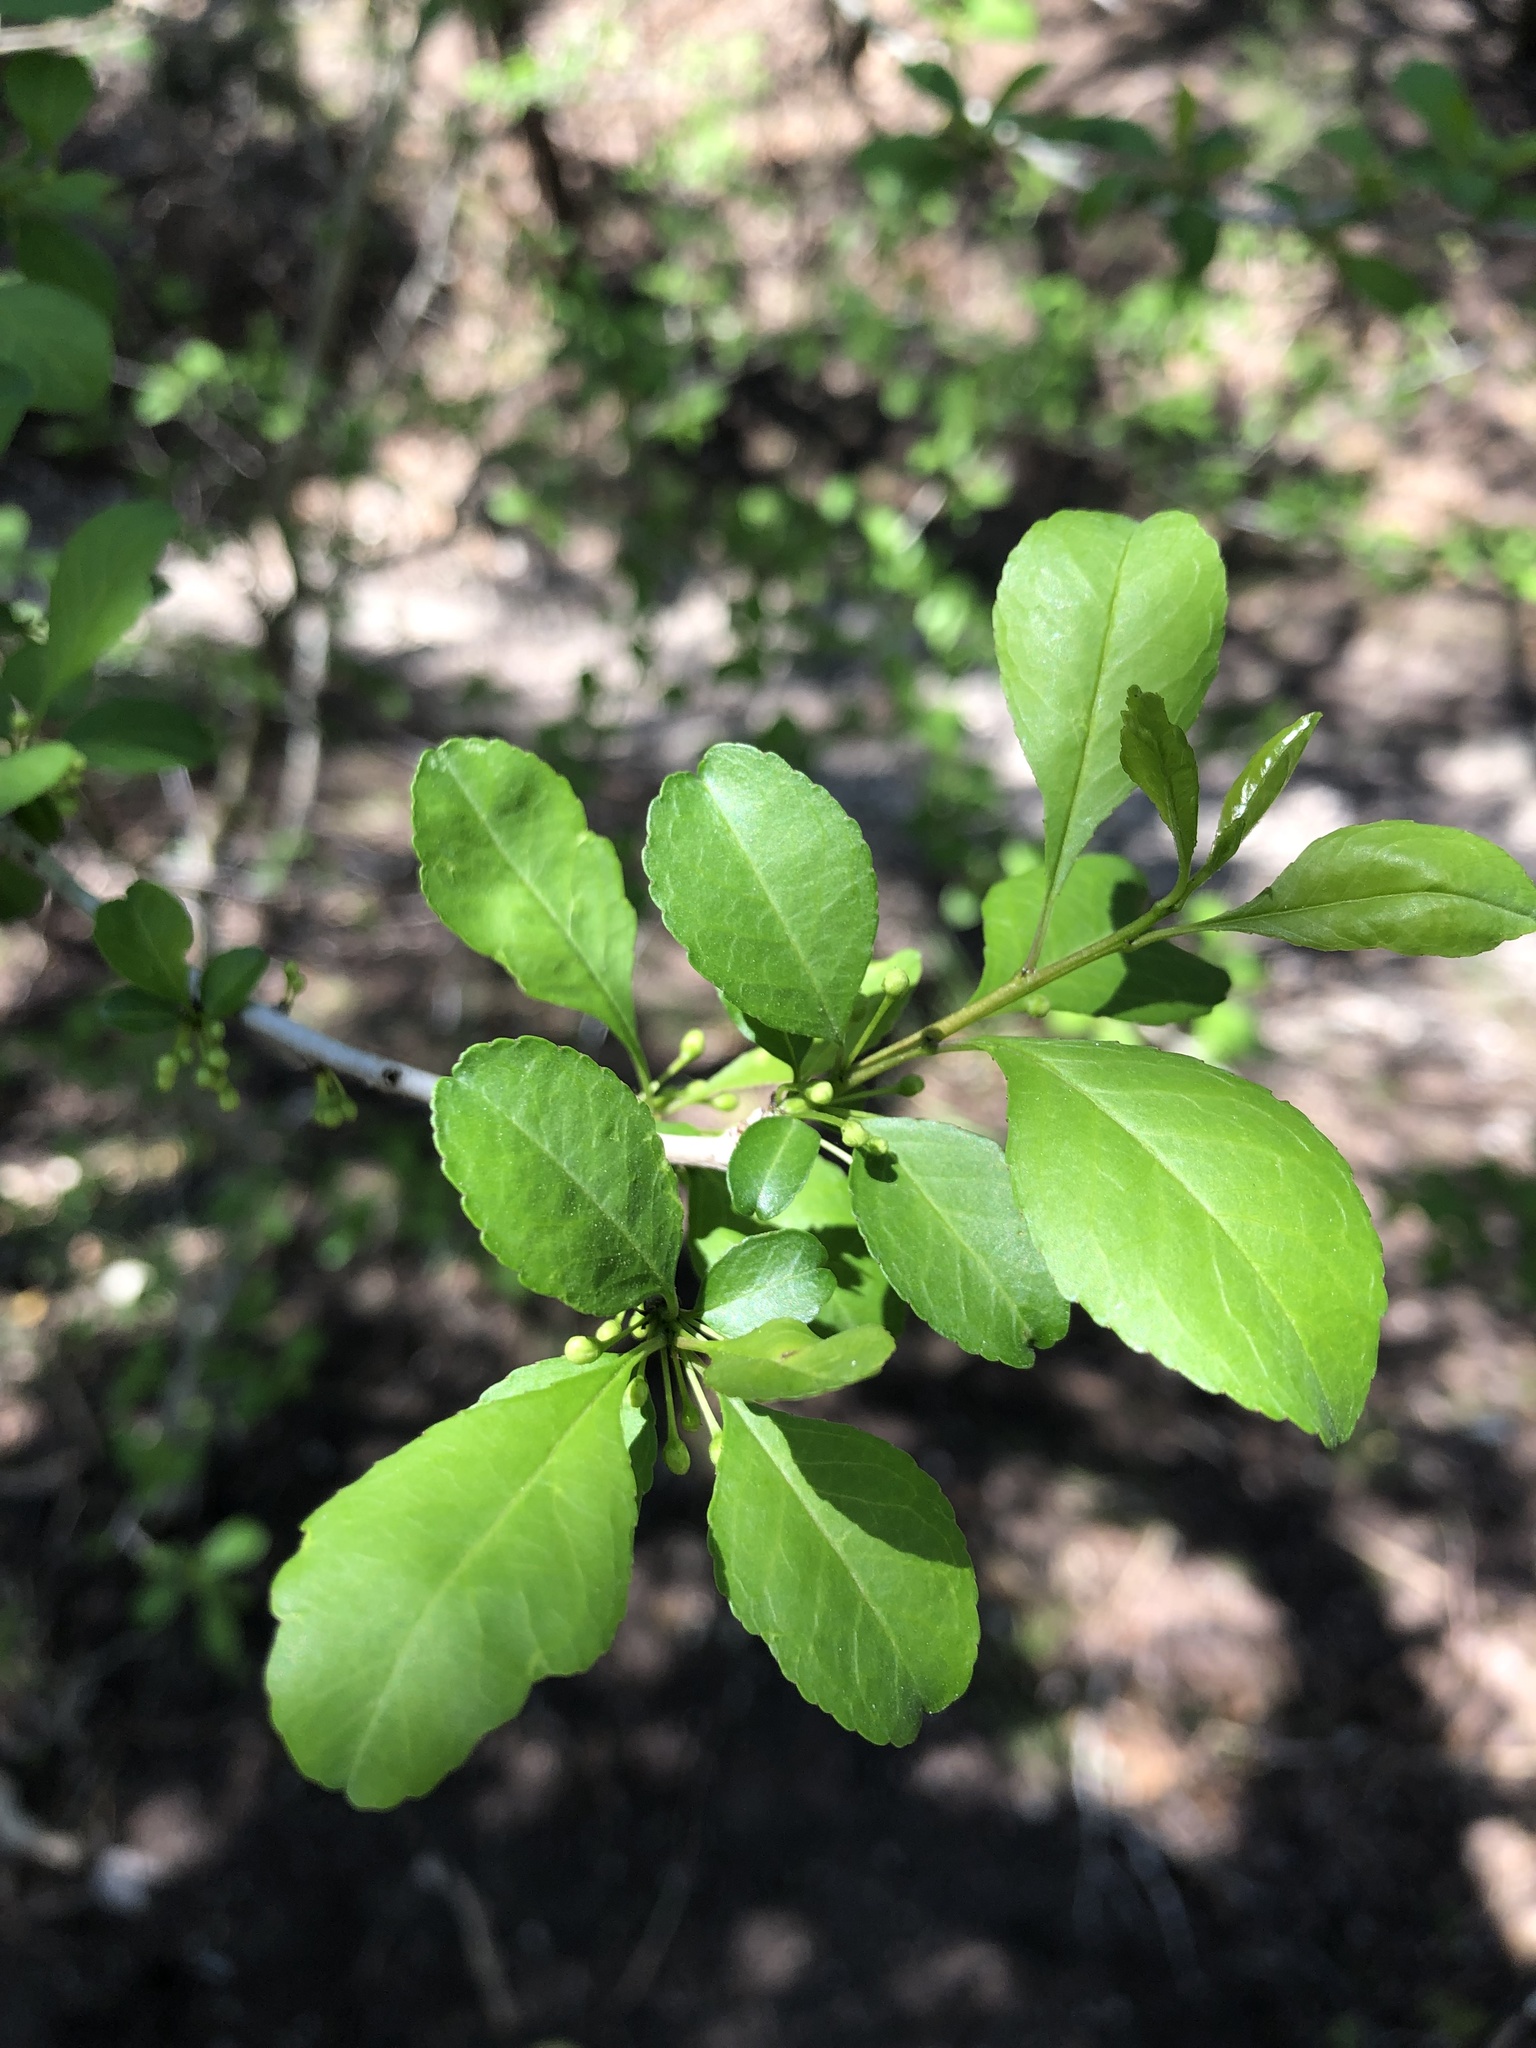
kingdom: Plantae
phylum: Tracheophyta
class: Magnoliopsida
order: Aquifoliales
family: Aquifoliaceae
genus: Ilex
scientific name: Ilex decidua
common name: Possum-haw
